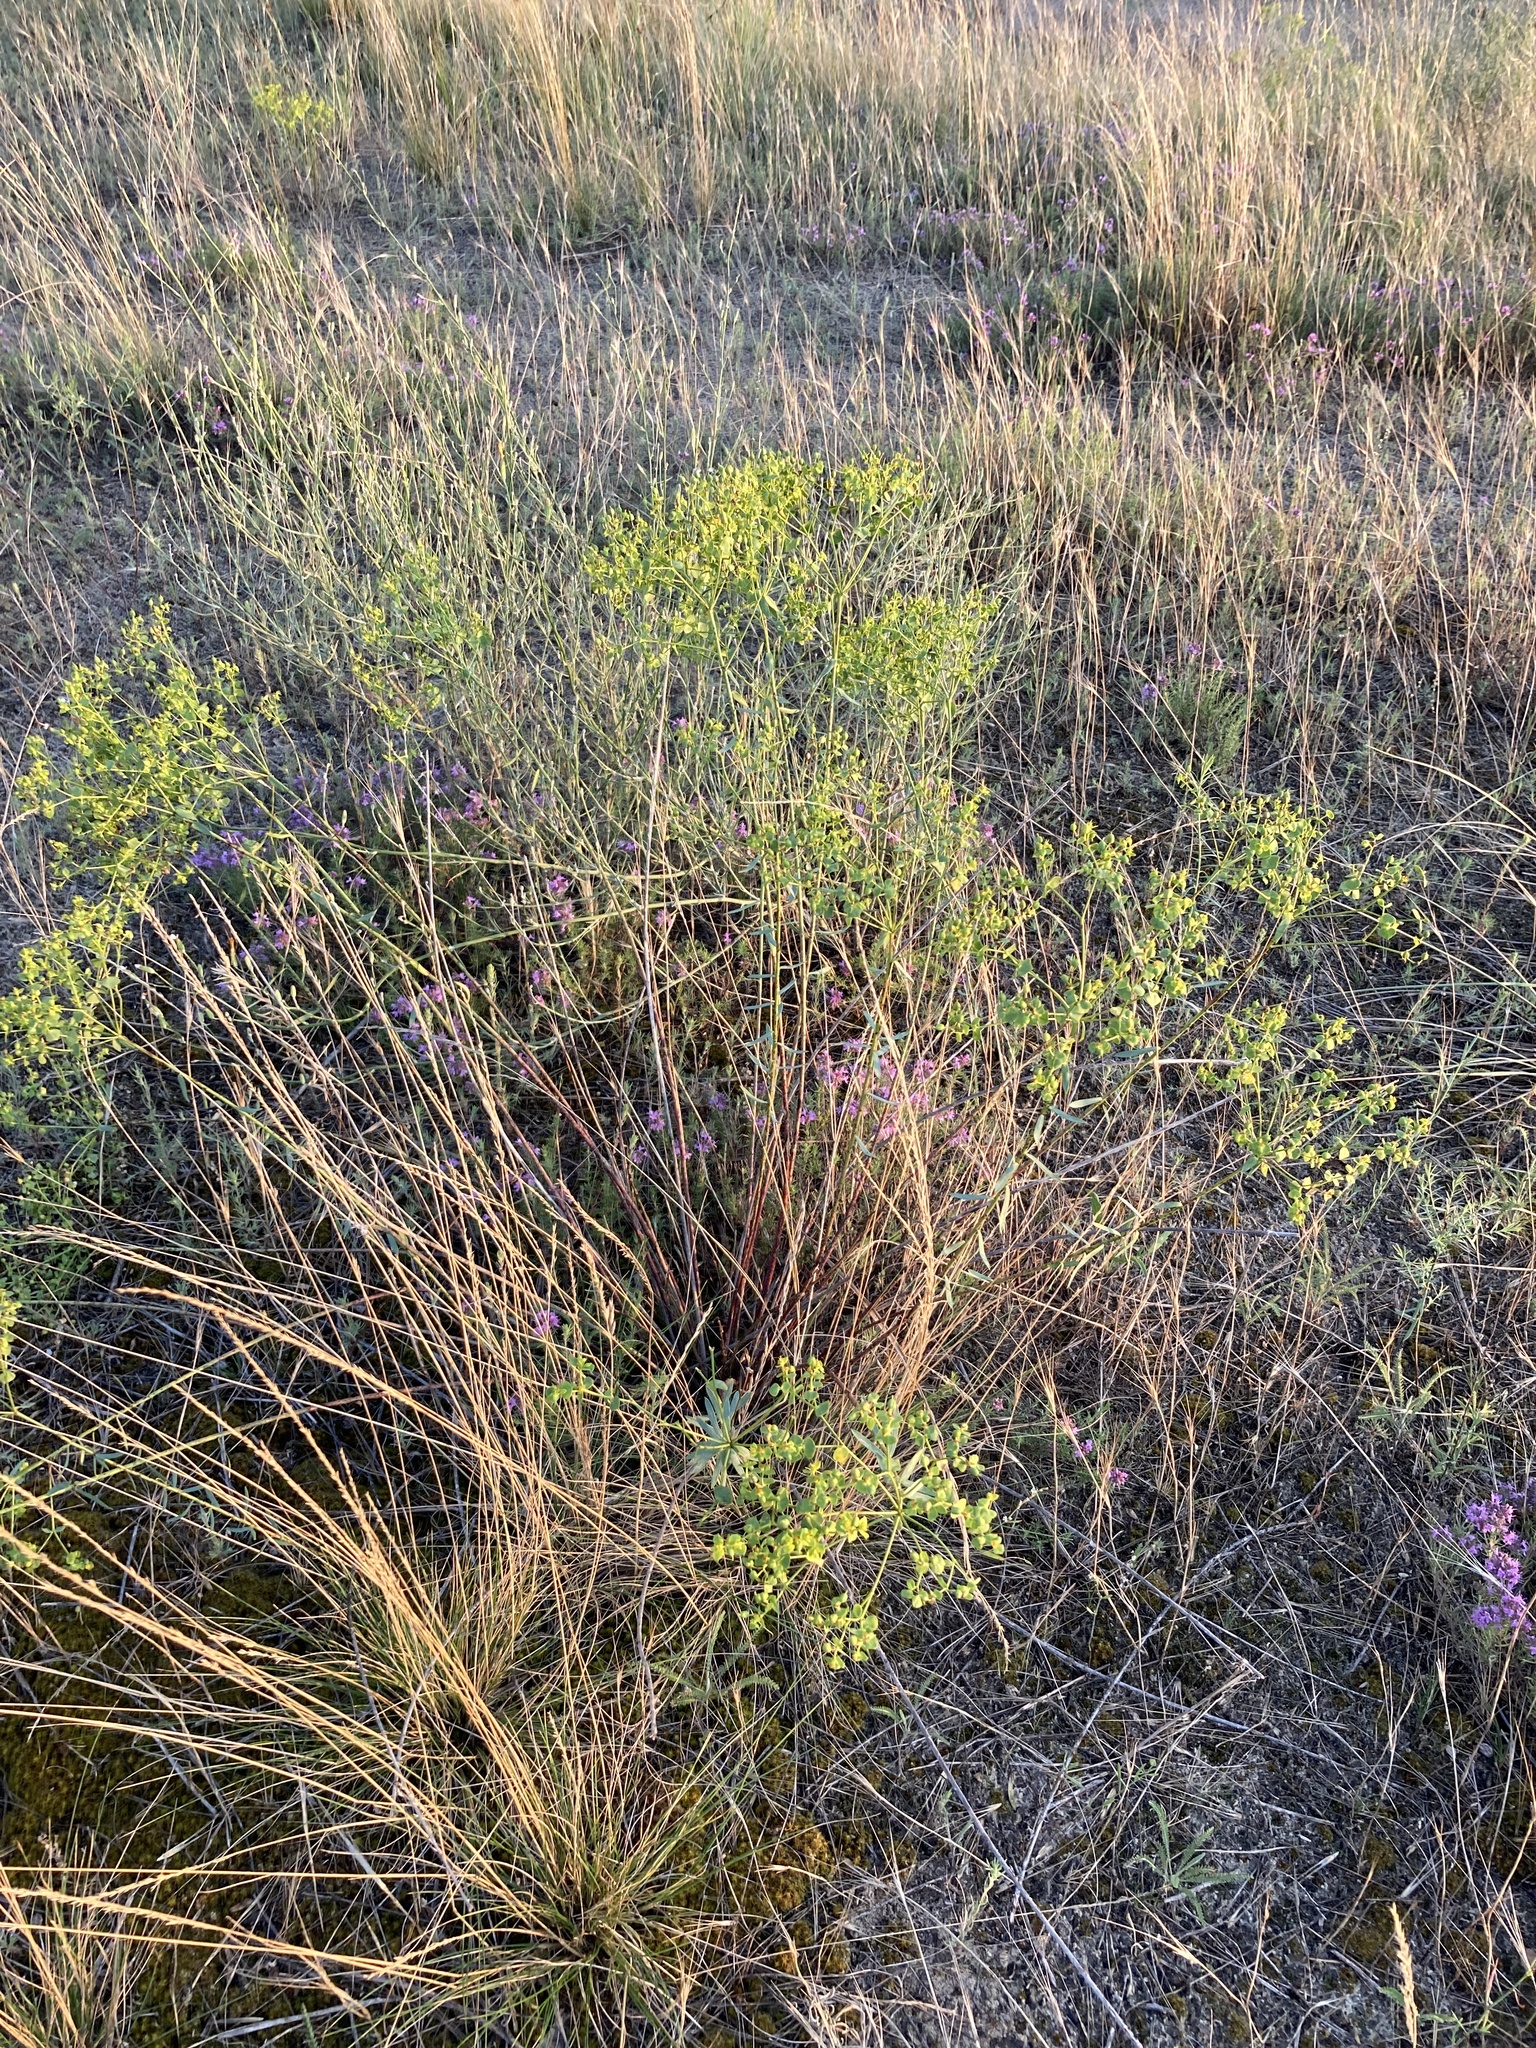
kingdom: Plantae
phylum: Tracheophyta
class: Magnoliopsida
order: Malpighiales
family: Euphorbiaceae
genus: Euphorbia
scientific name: Euphorbia seguieriana
